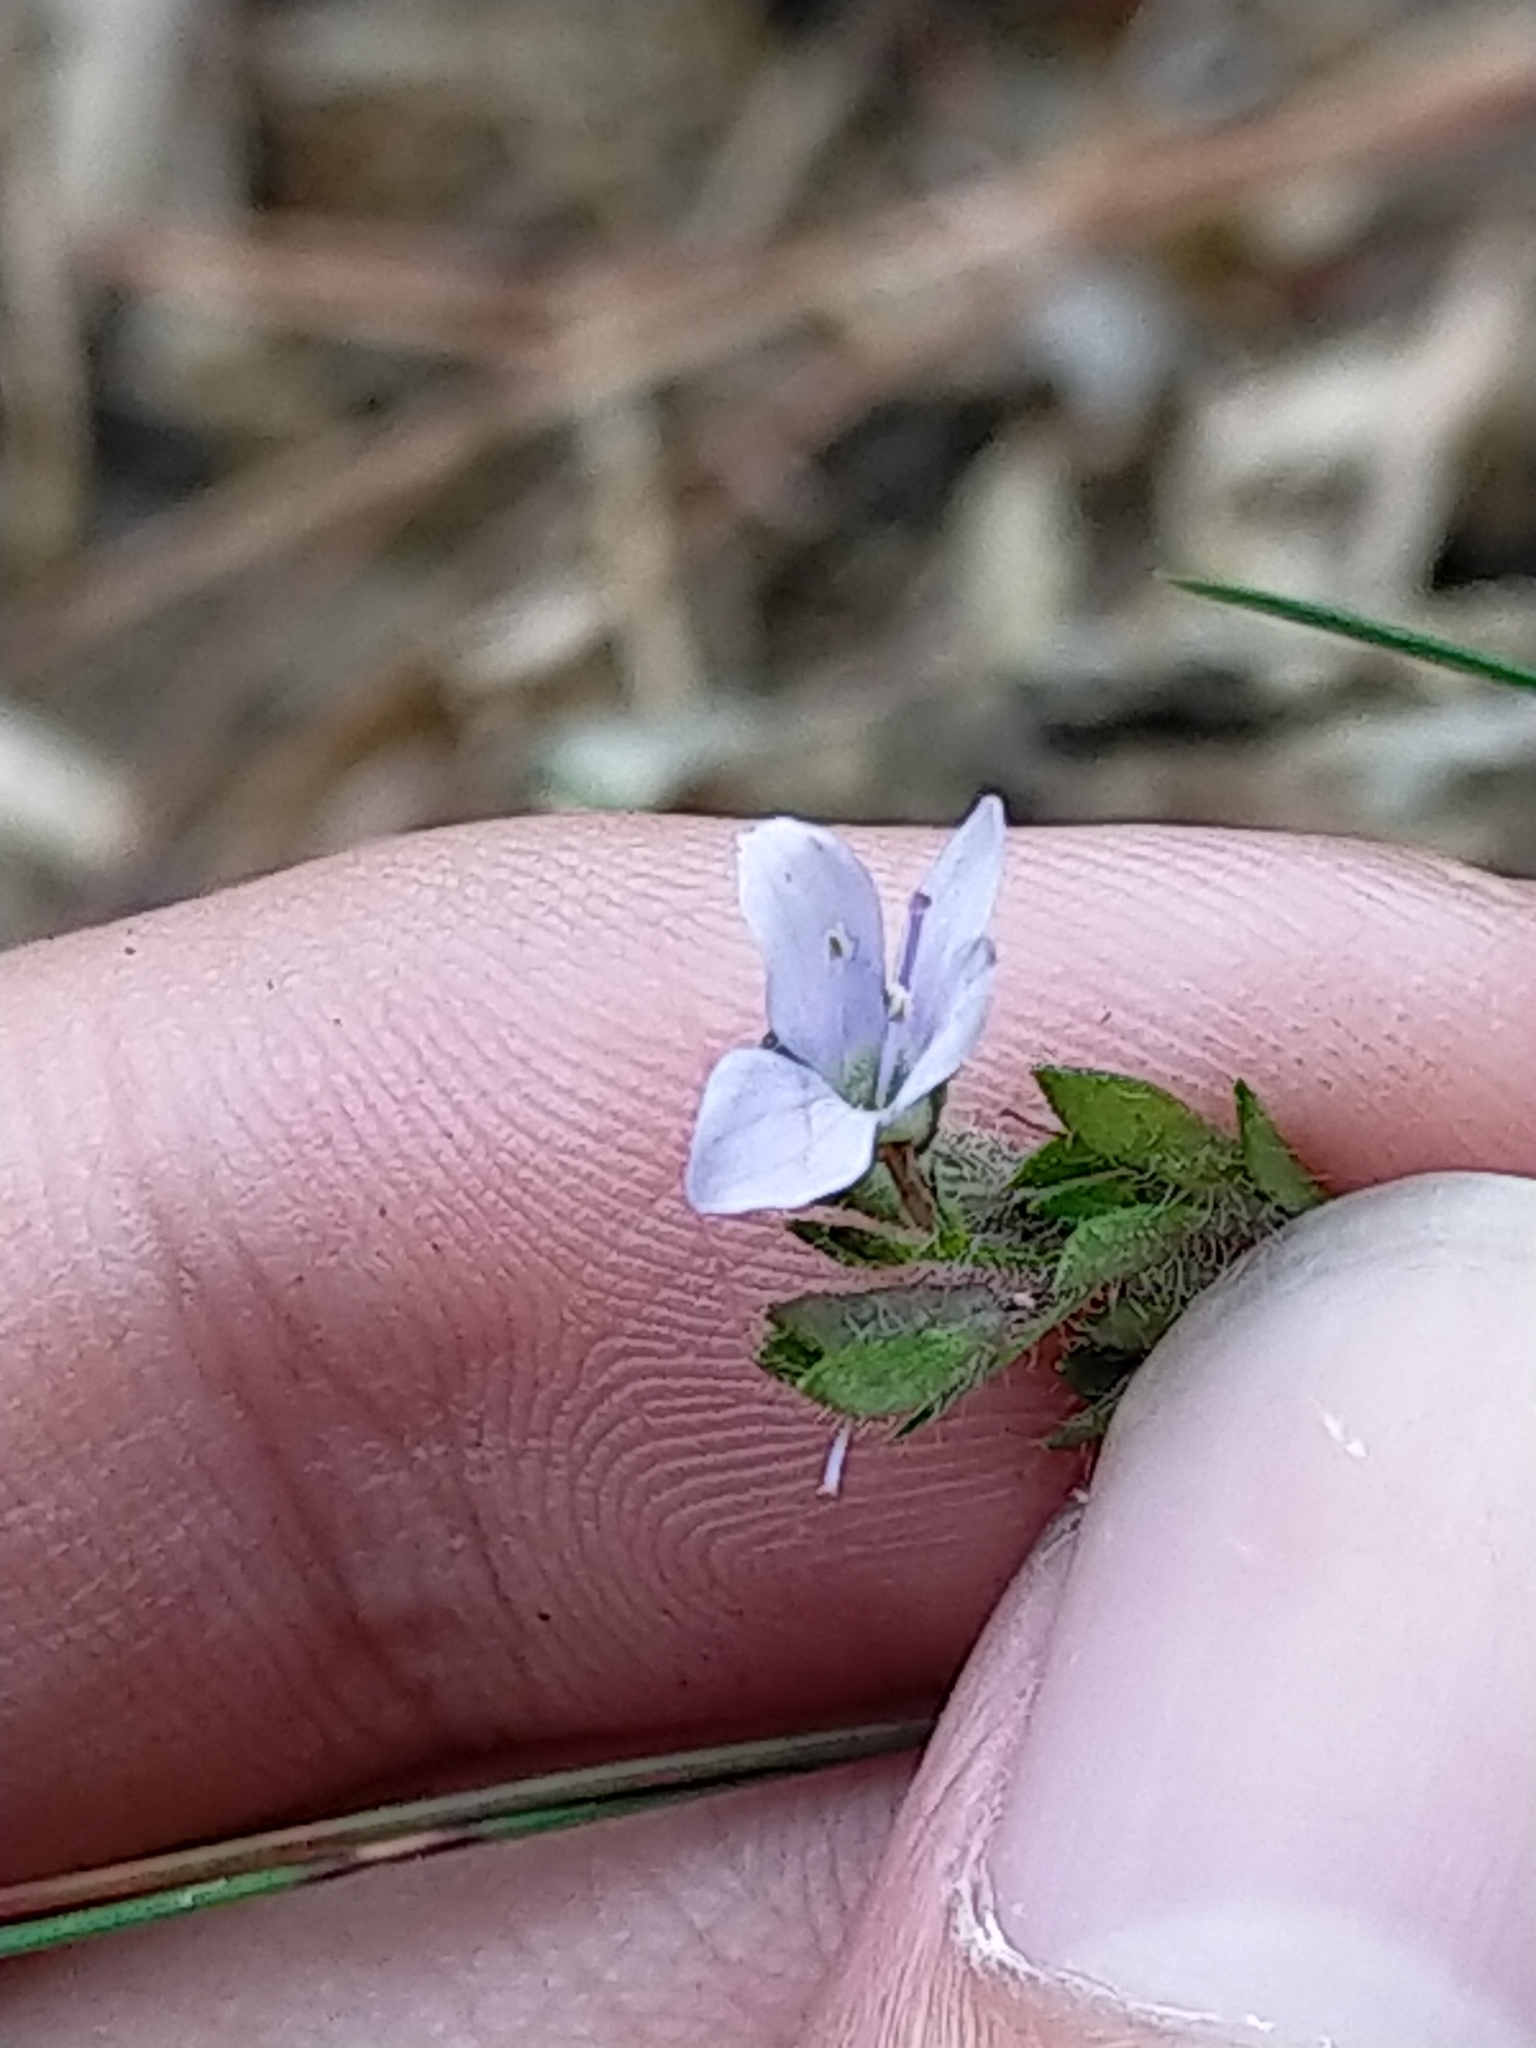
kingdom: Plantae
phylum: Tracheophyta
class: Magnoliopsida
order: Lamiales
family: Plantaginaceae
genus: Veronica
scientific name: Veronica morrisonicola
